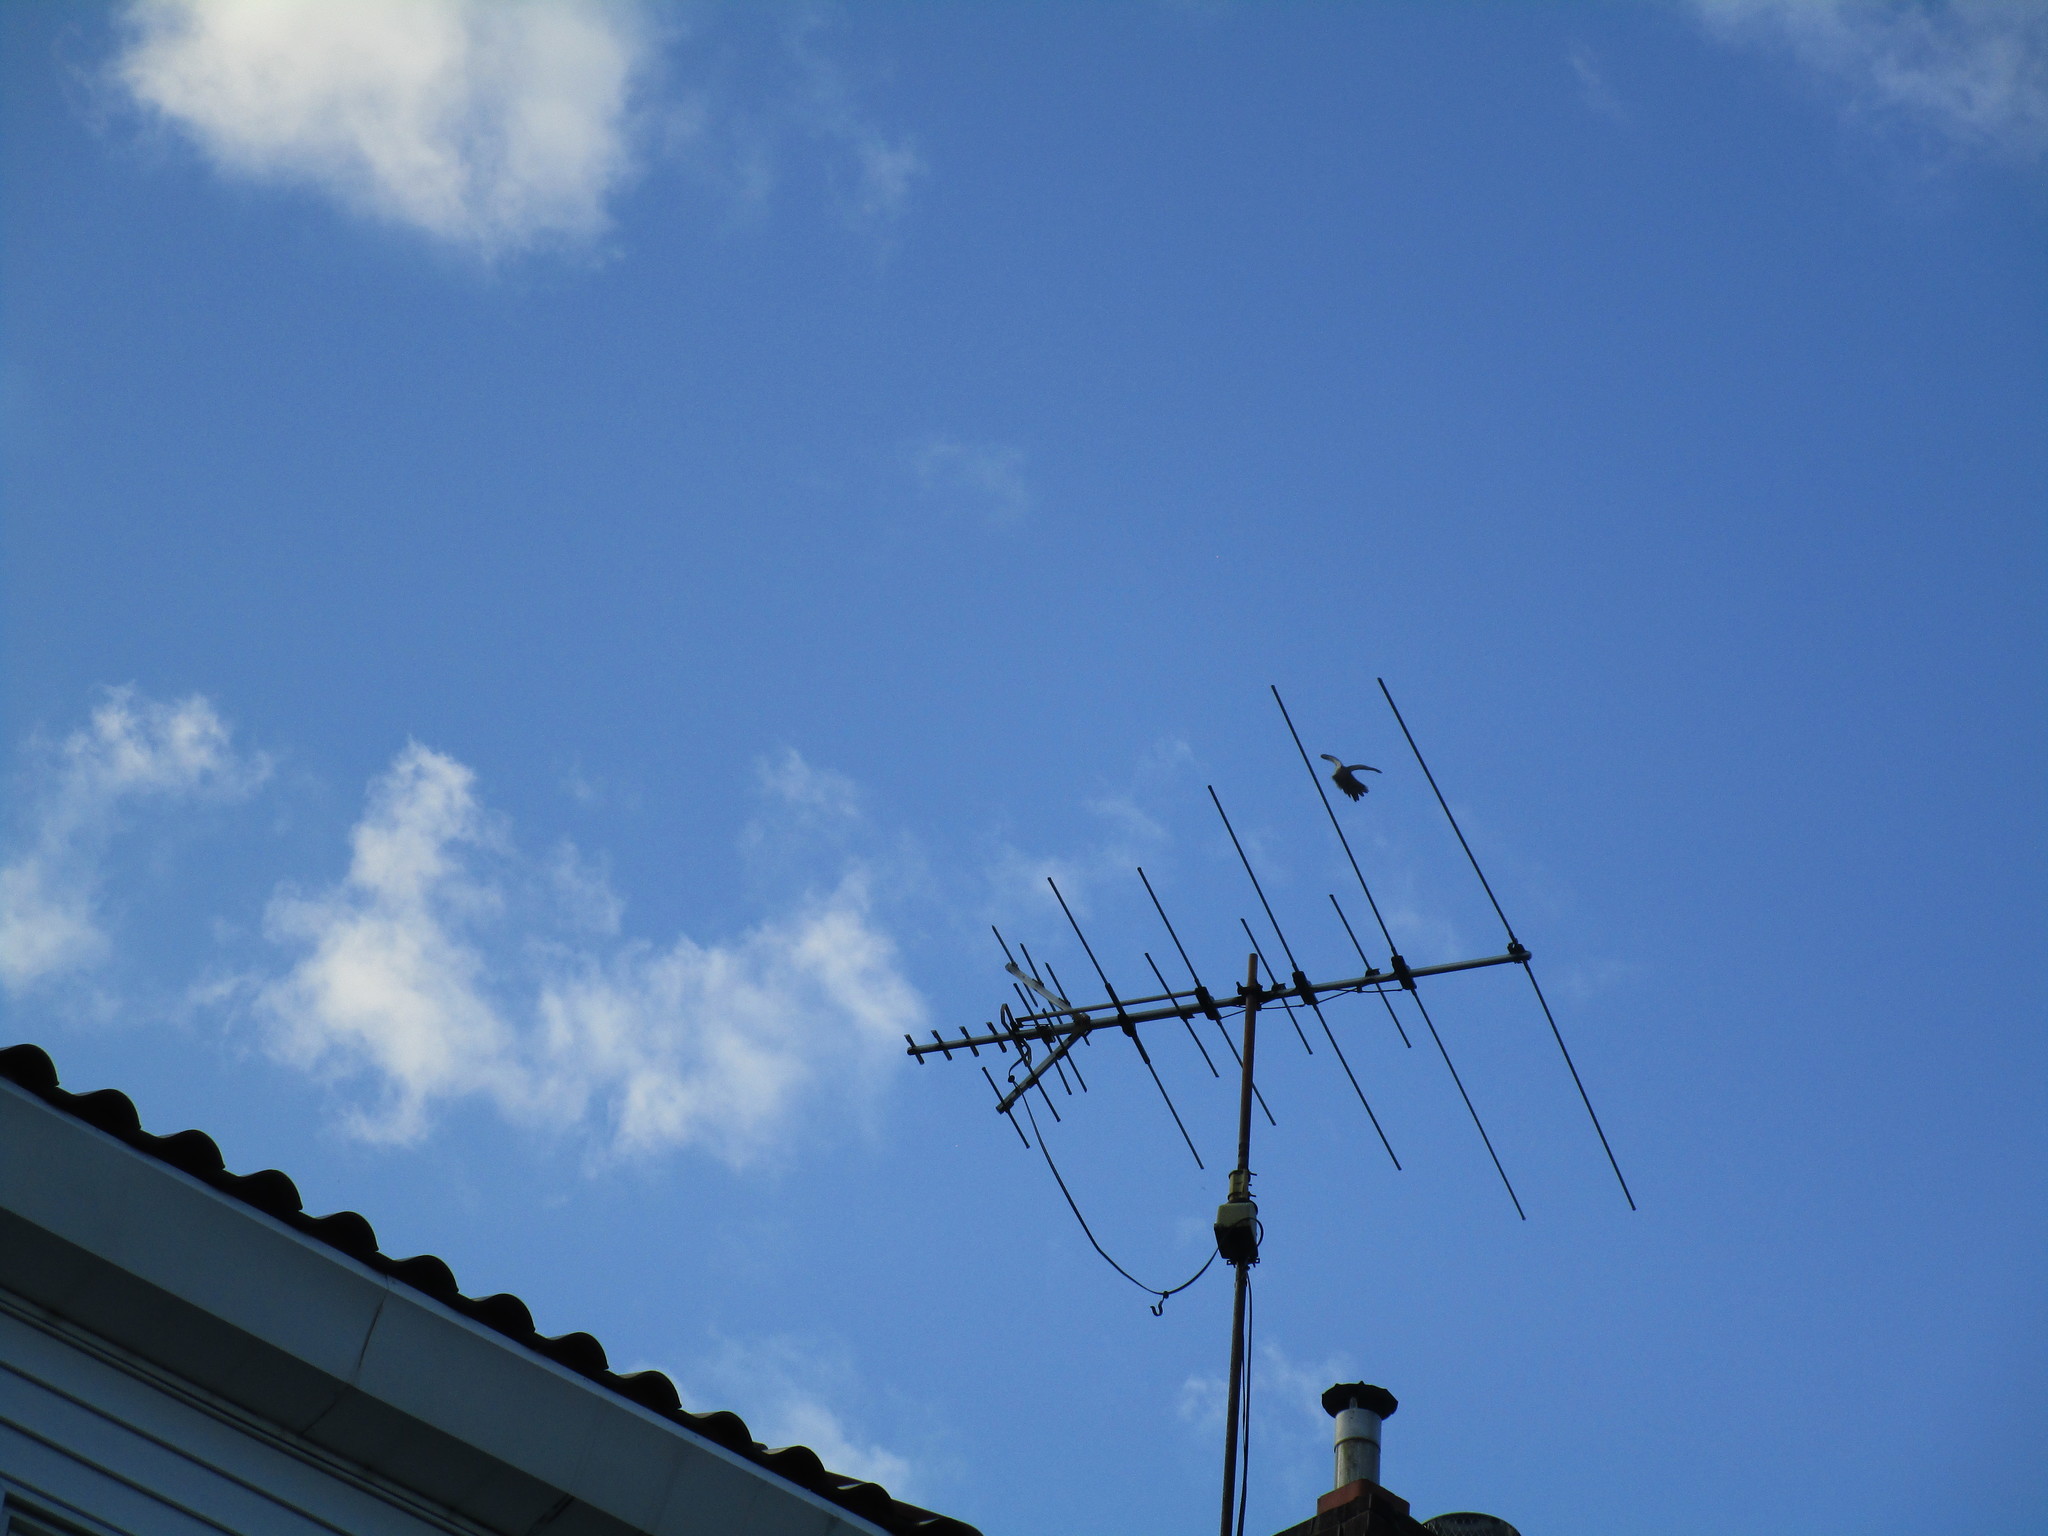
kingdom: Animalia
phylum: Chordata
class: Aves
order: Columbiformes
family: Columbidae
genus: Zenaida
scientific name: Zenaida macroura
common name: Mourning dove
